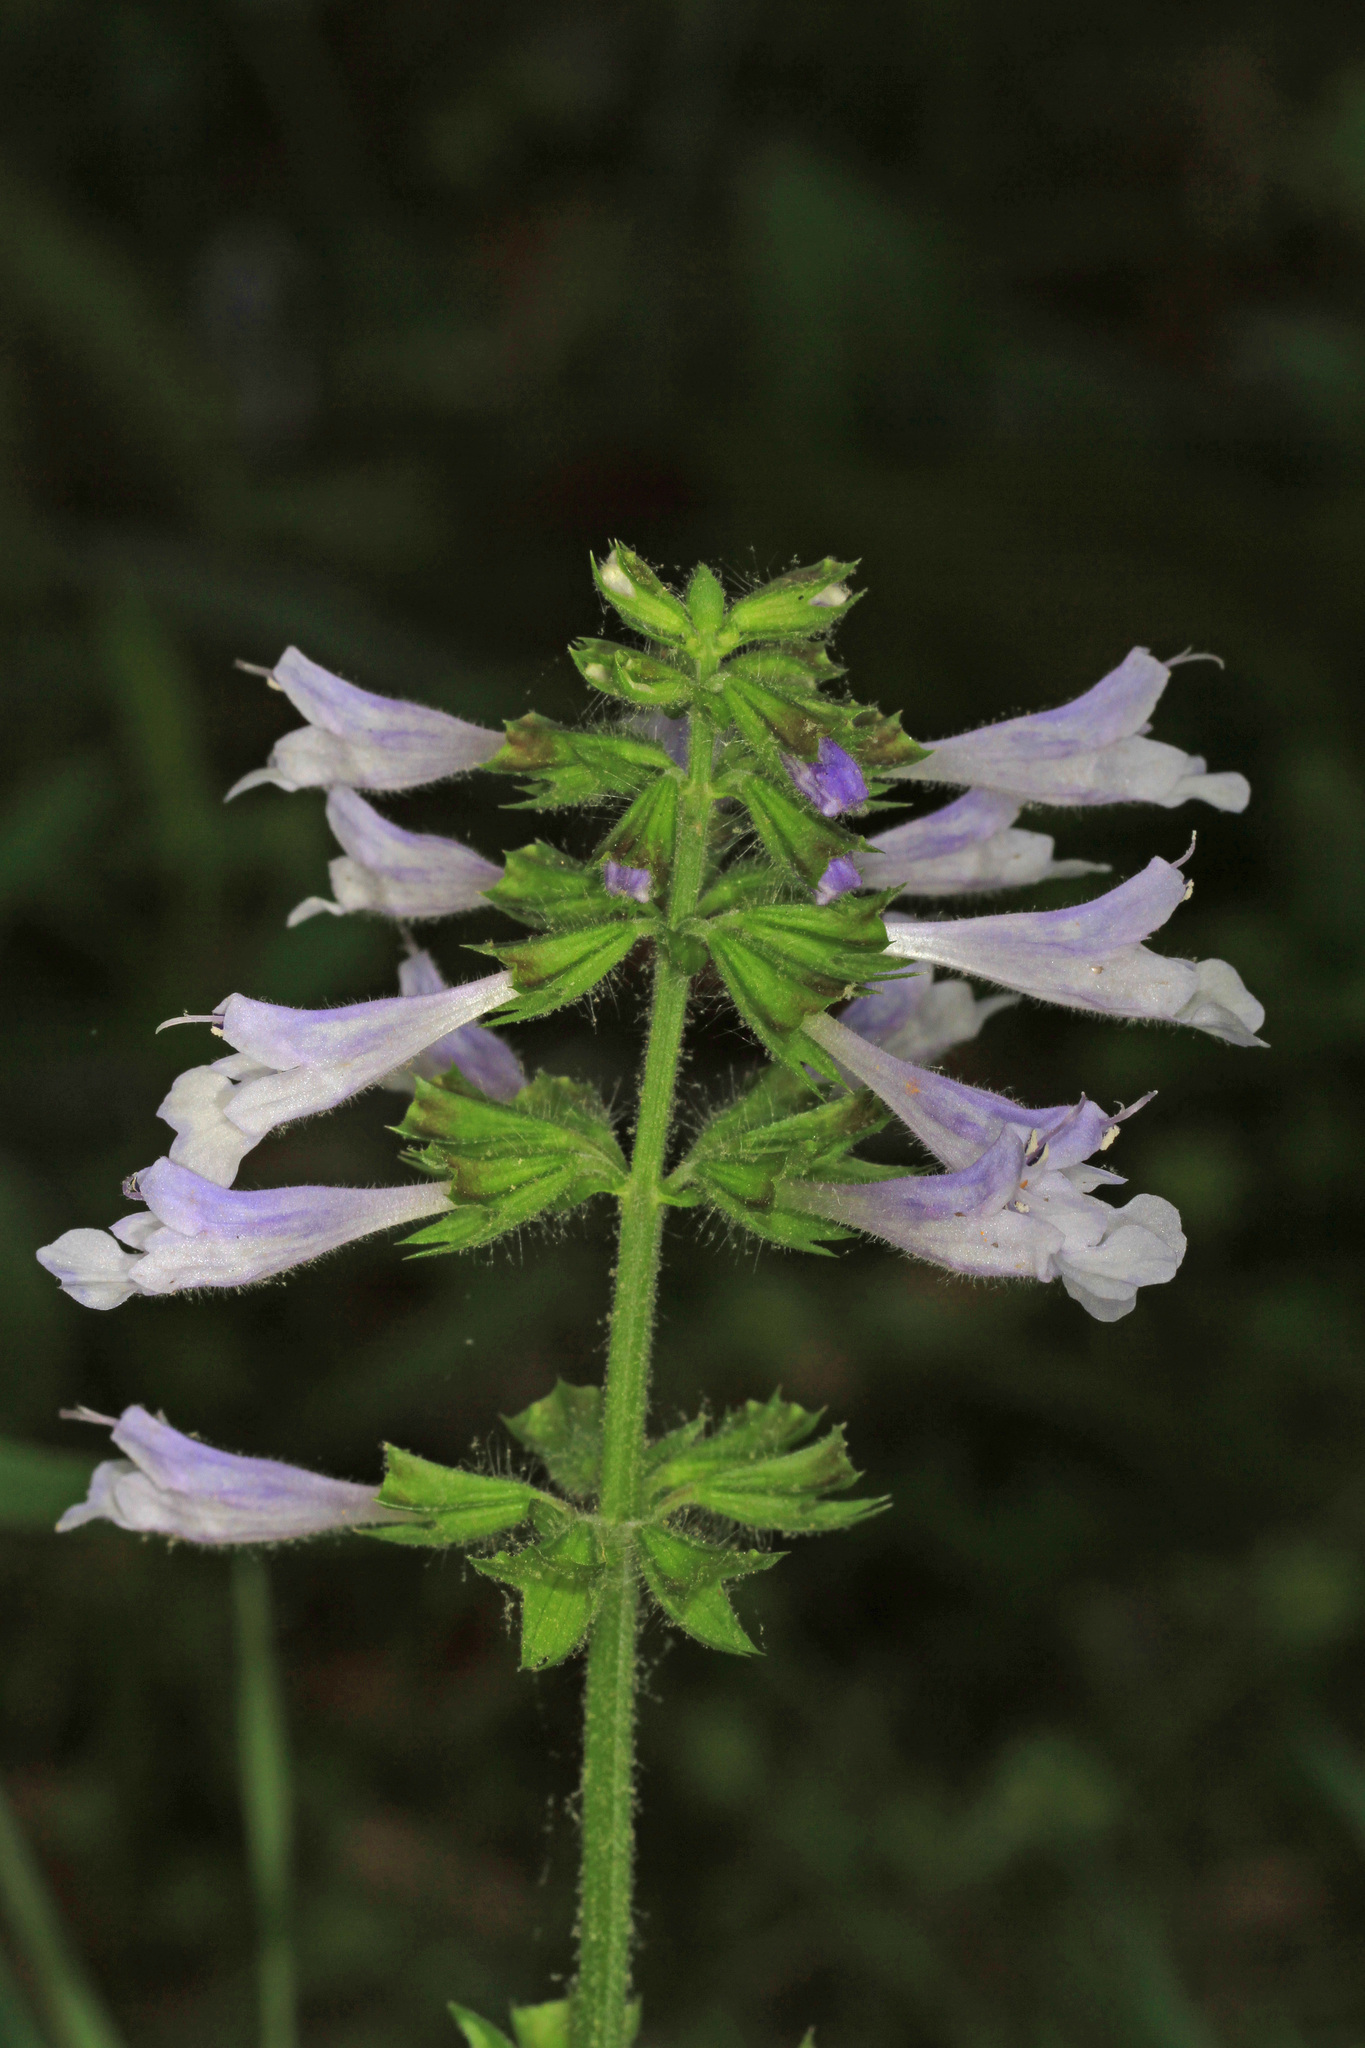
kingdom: Plantae
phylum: Tracheophyta
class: Magnoliopsida
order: Lamiales
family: Lamiaceae
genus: Salvia
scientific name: Salvia lyrata
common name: Cancerweed
